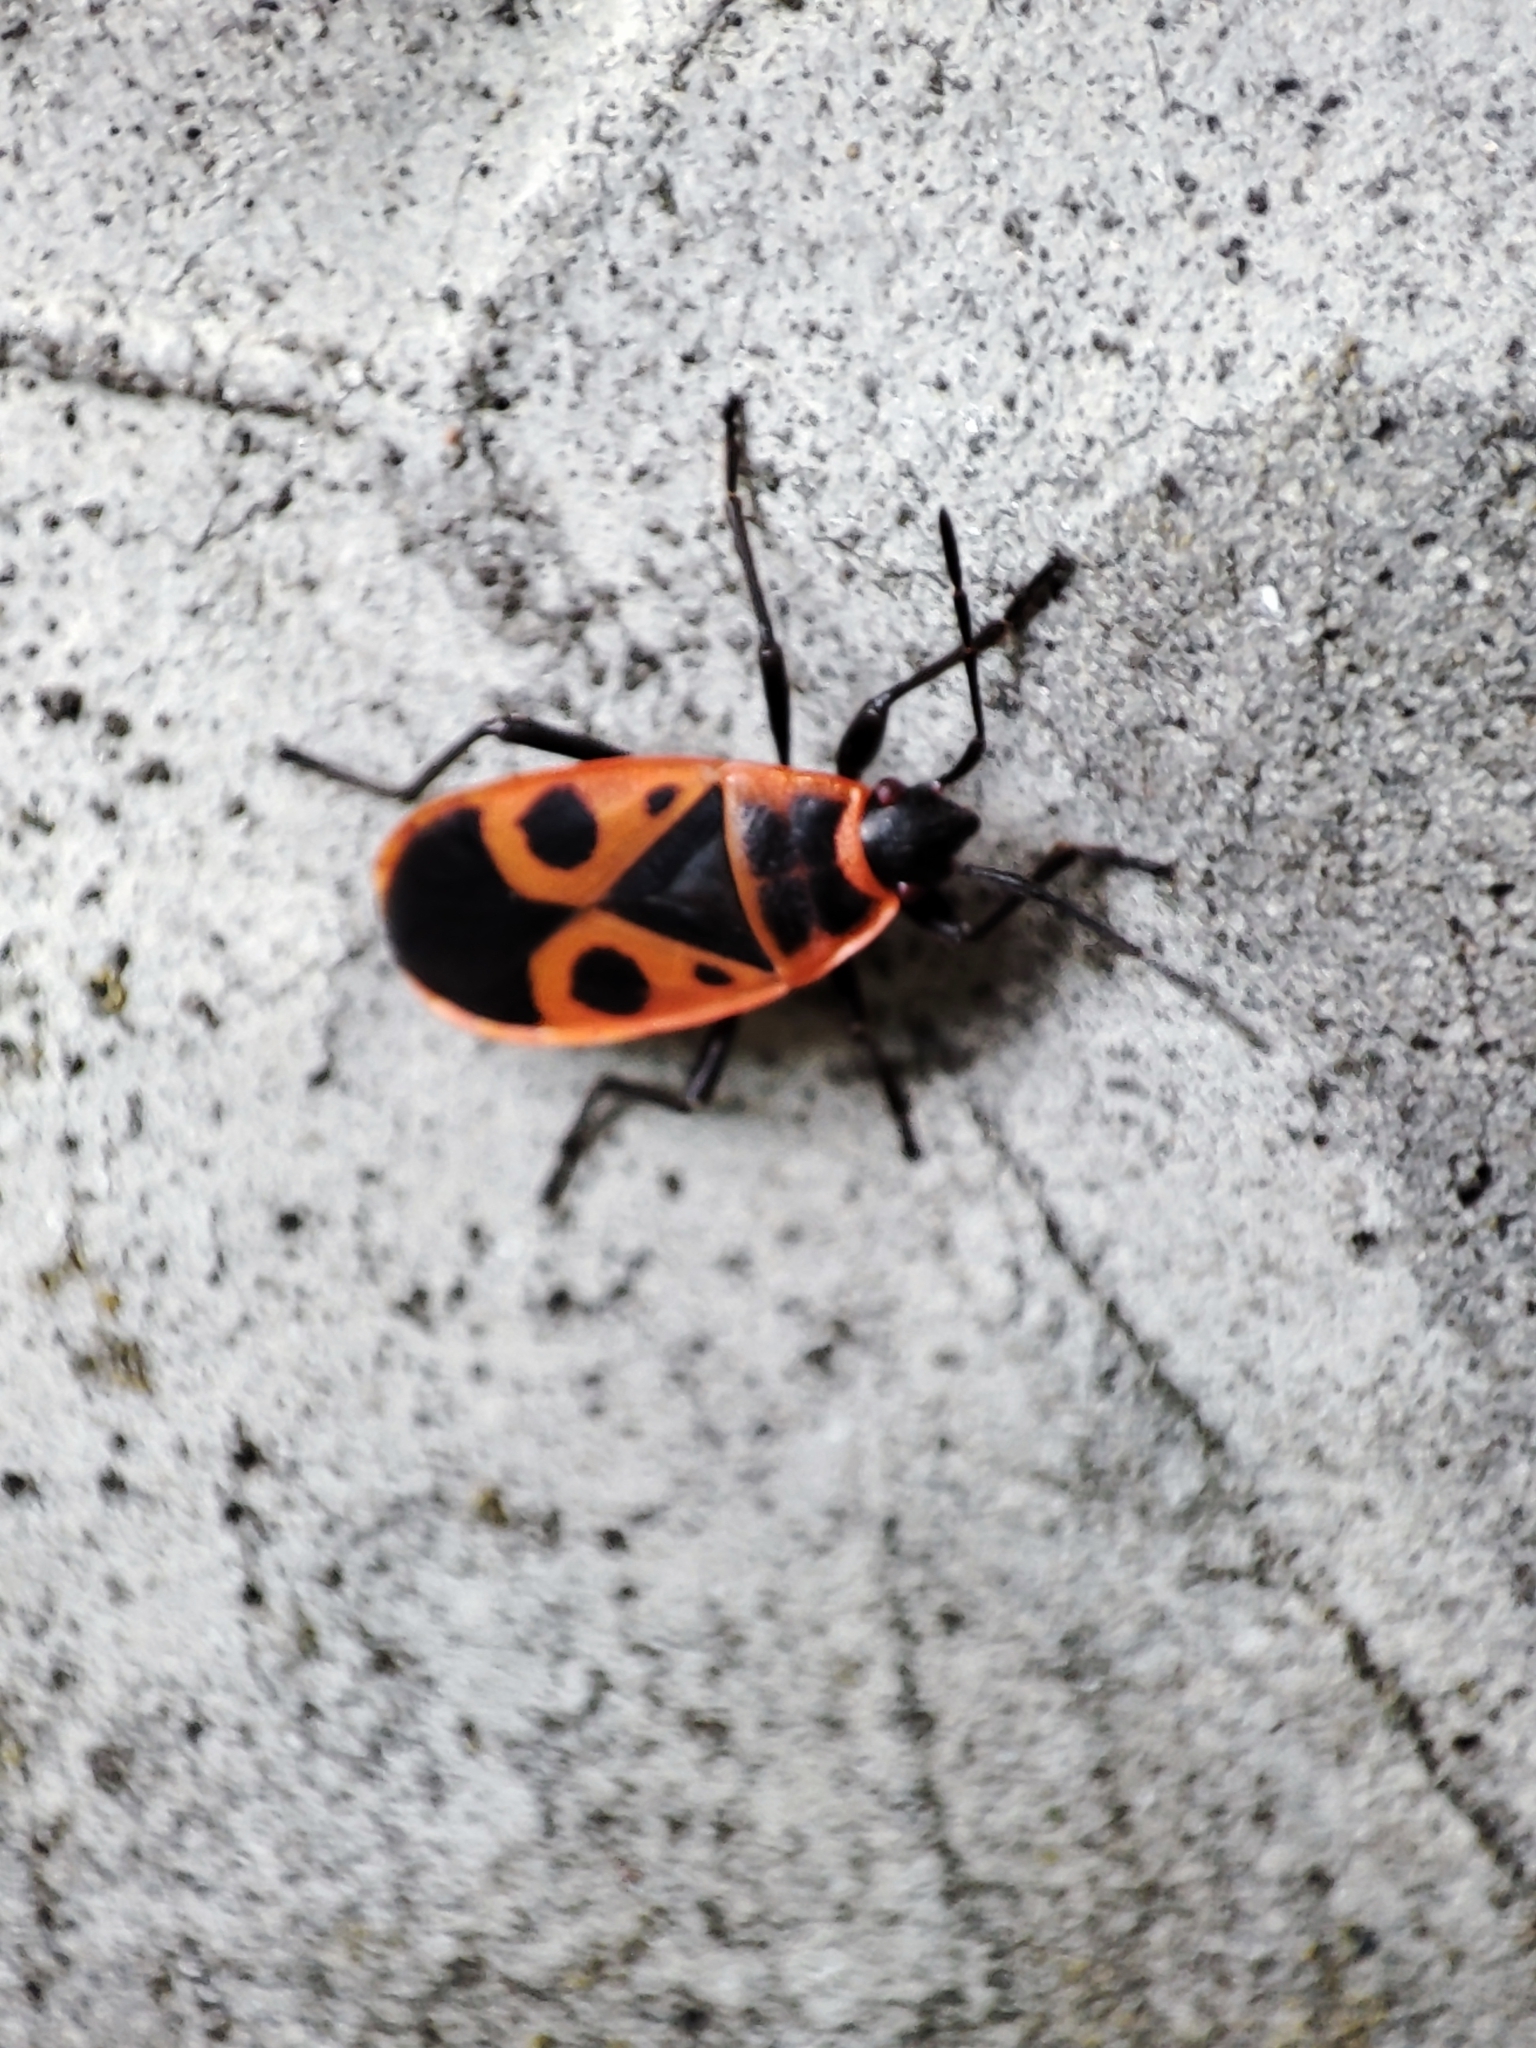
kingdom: Animalia
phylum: Arthropoda
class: Insecta
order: Hemiptera
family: Pyrrhocoridae
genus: Pyrrhocoris
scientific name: Pyrrhocoris apterus
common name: Firebug
